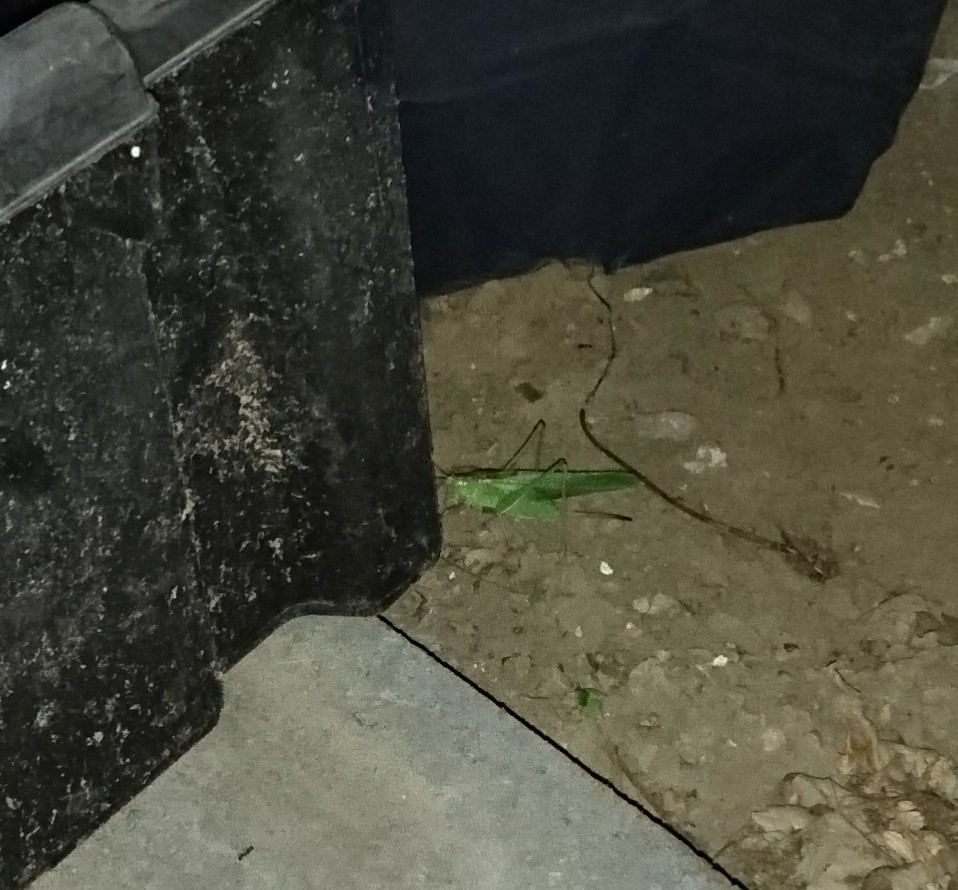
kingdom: Animalia
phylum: Arthropoda
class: Insecta
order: Orthoptera
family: Tettigoniidae
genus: Tettigonia
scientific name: Tettigonia viridissima
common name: Great green bush-cricket
